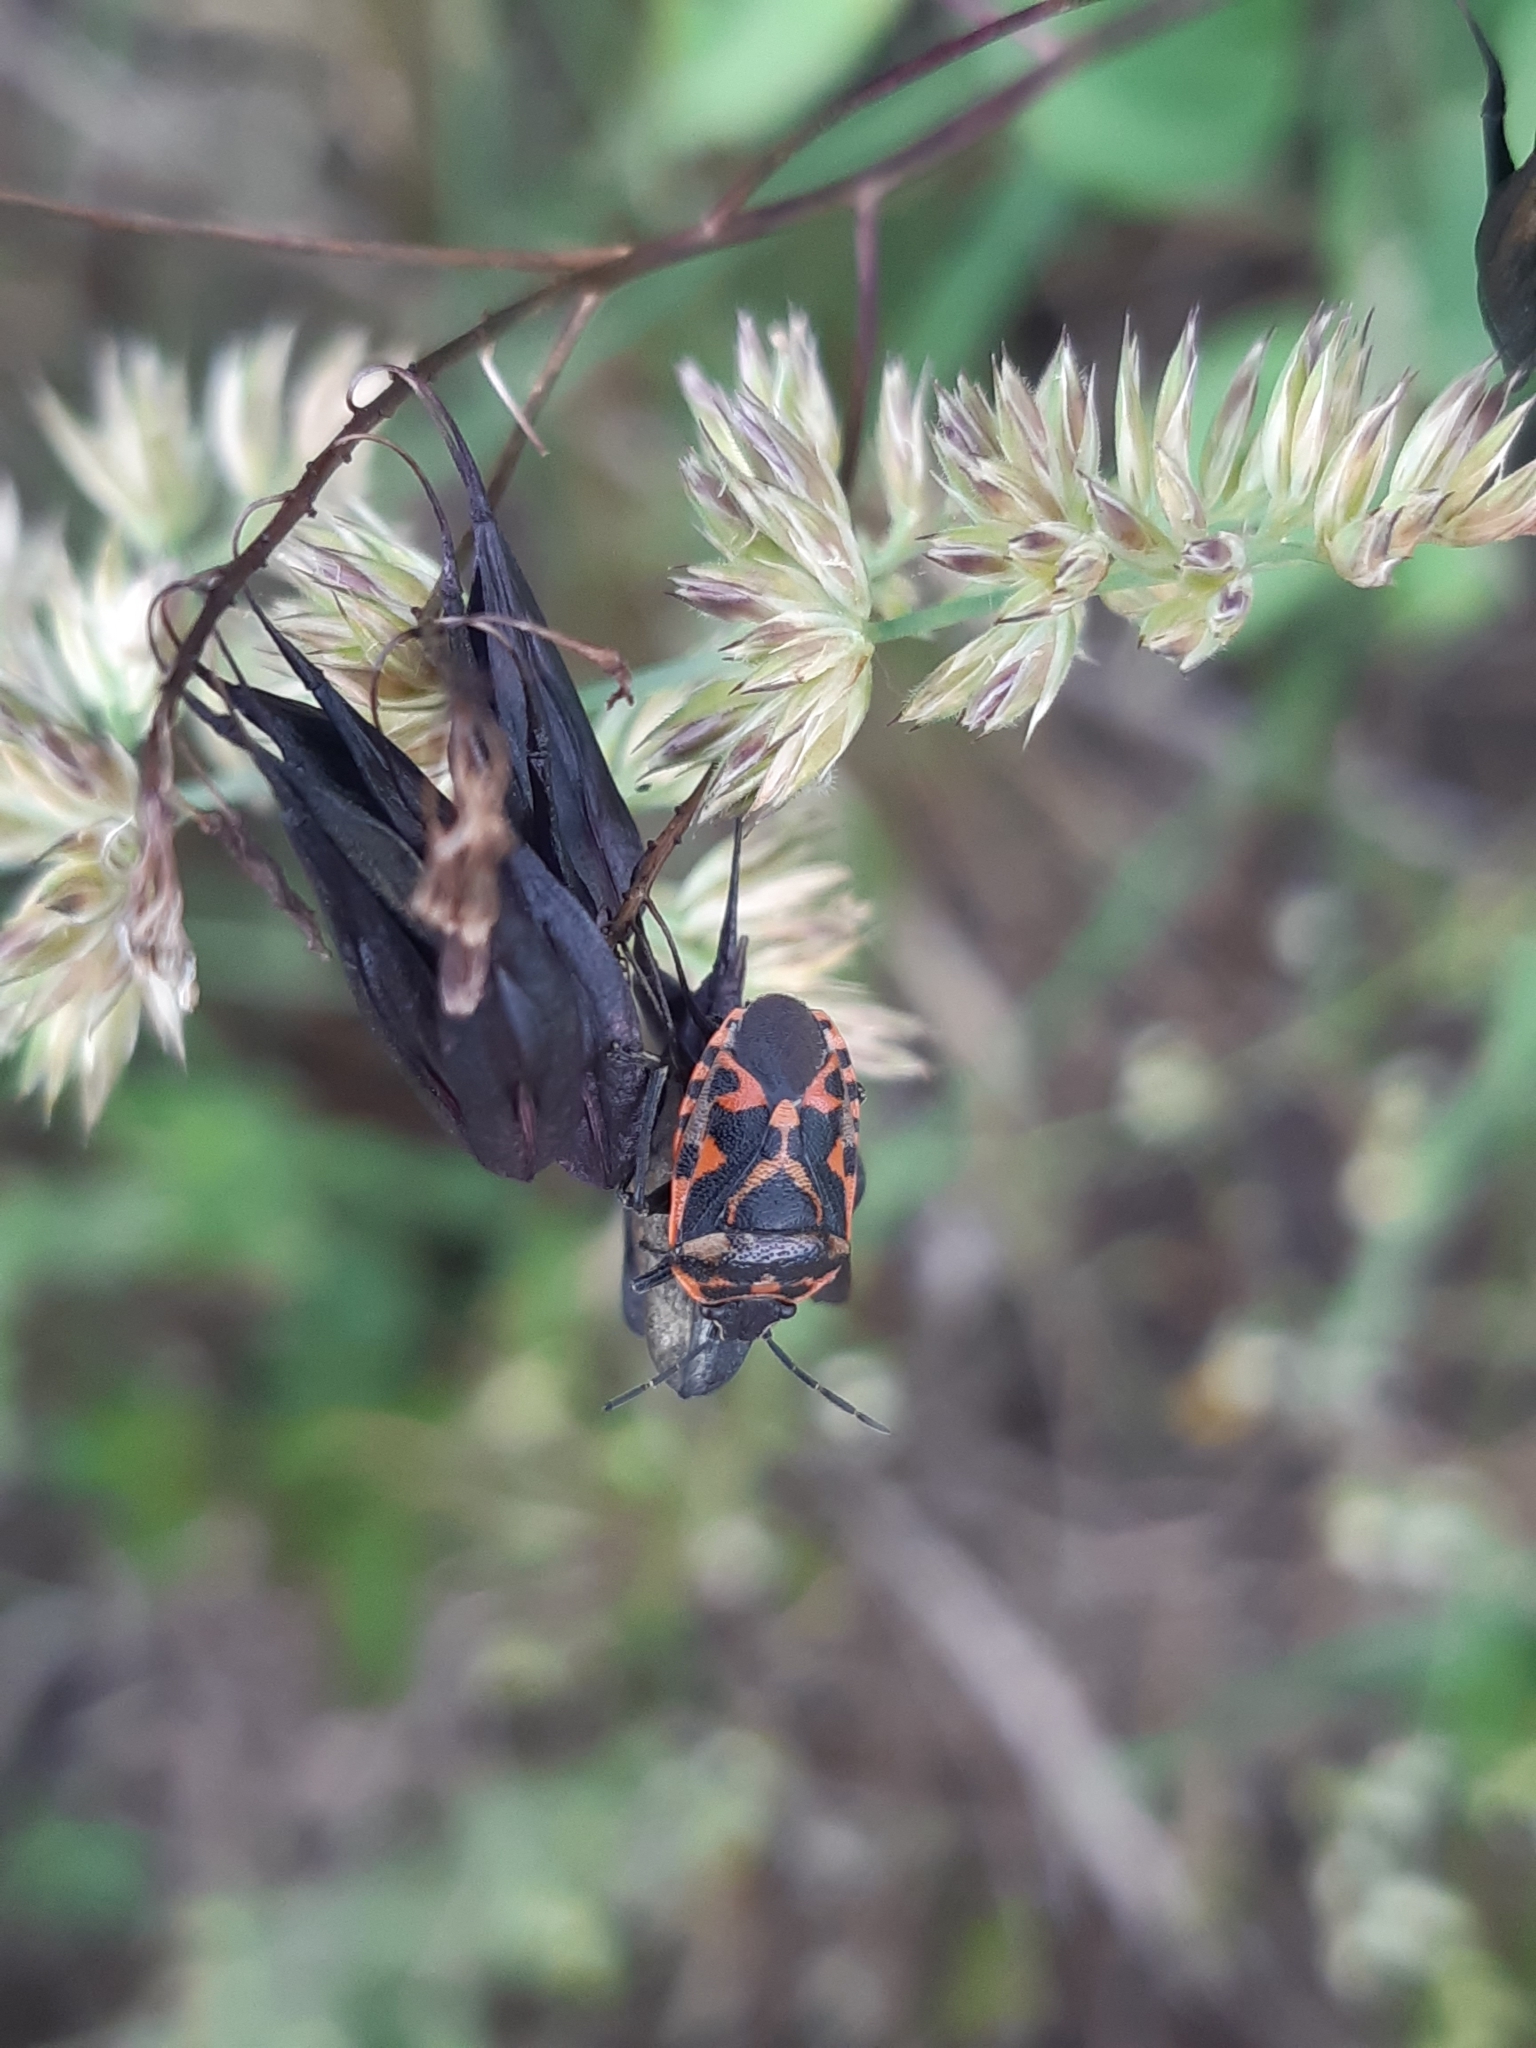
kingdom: Animalia
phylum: Arthropoda
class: Insecta
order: Hemiptera
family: Pentatomidae
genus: Eurydema
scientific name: Eurydema ornata
